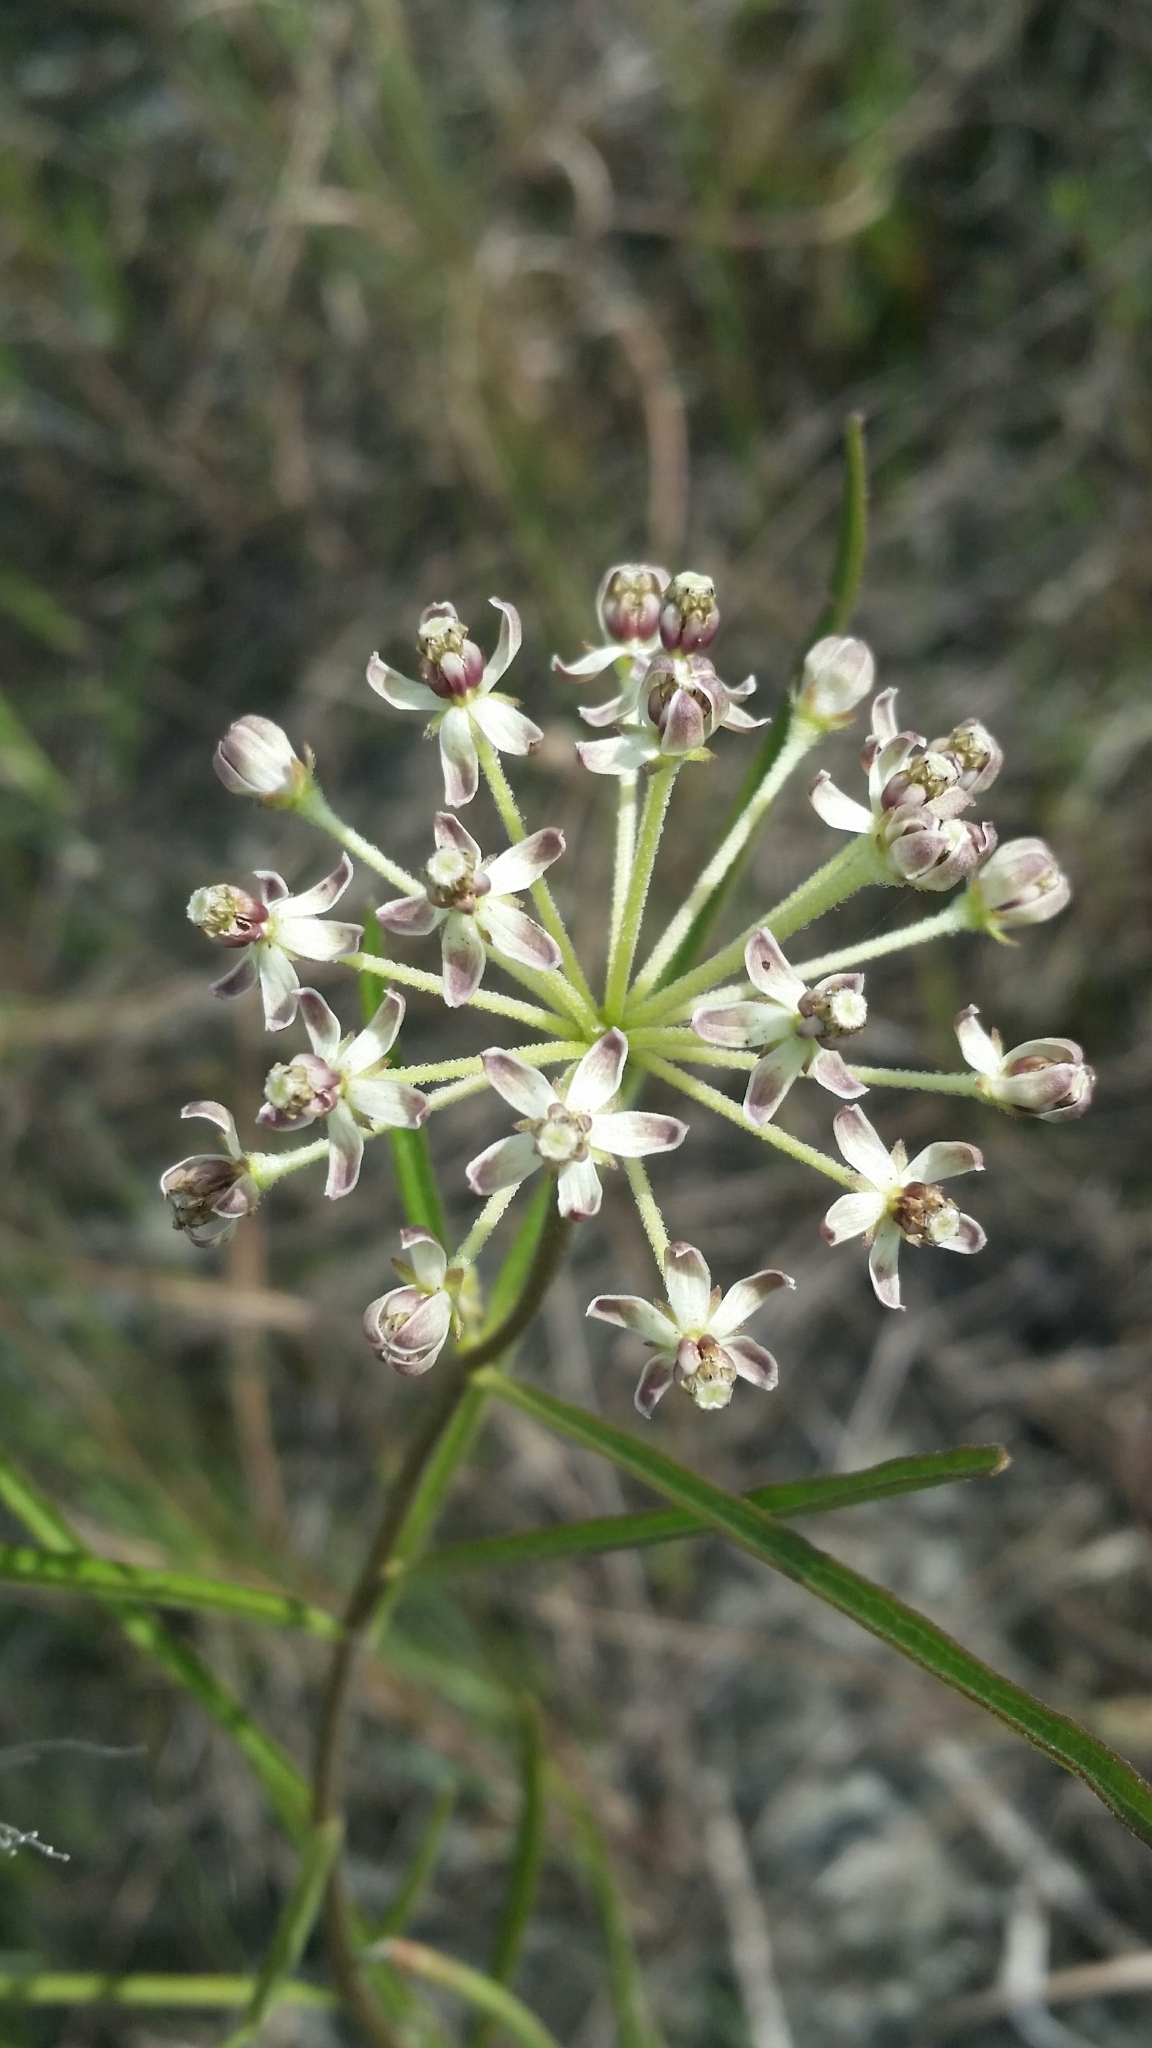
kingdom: Plantae
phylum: Tracheophyta
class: Magnoliopsida
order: Gentianales
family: Apocynaceae
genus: Asclepias
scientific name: Asclepias longifolia
